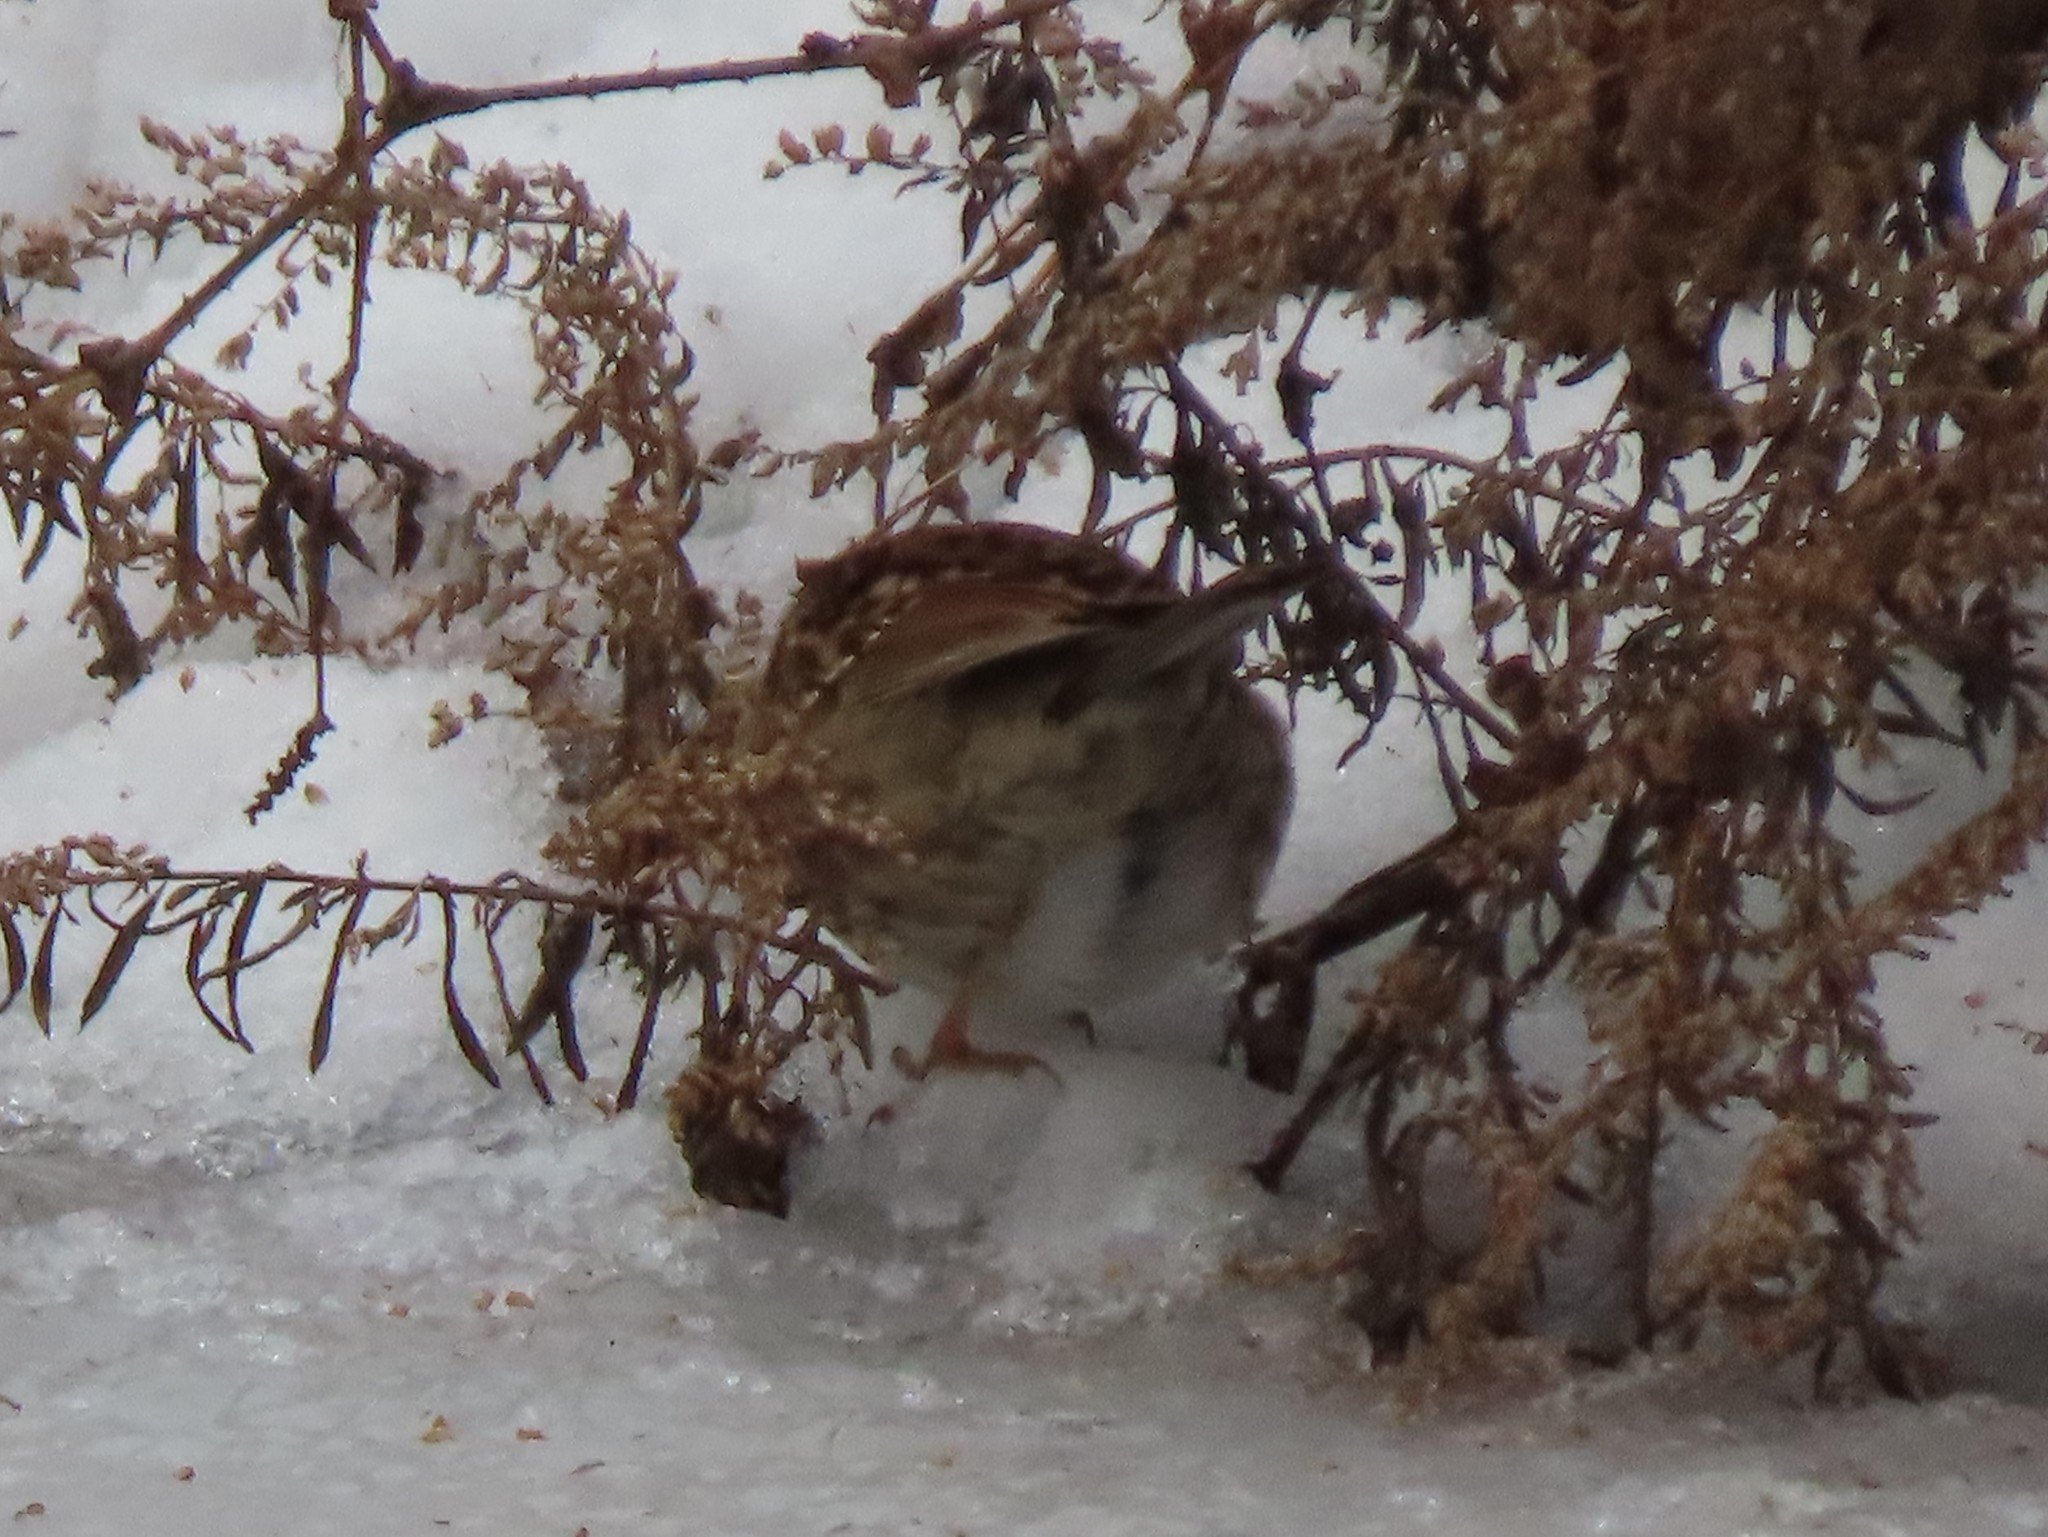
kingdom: Animalia
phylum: Chordata
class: Aves
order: Passeriformes
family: Passerellidae
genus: Zonotrichia
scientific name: Zonotrichia albicollis
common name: White-throated sparrow
